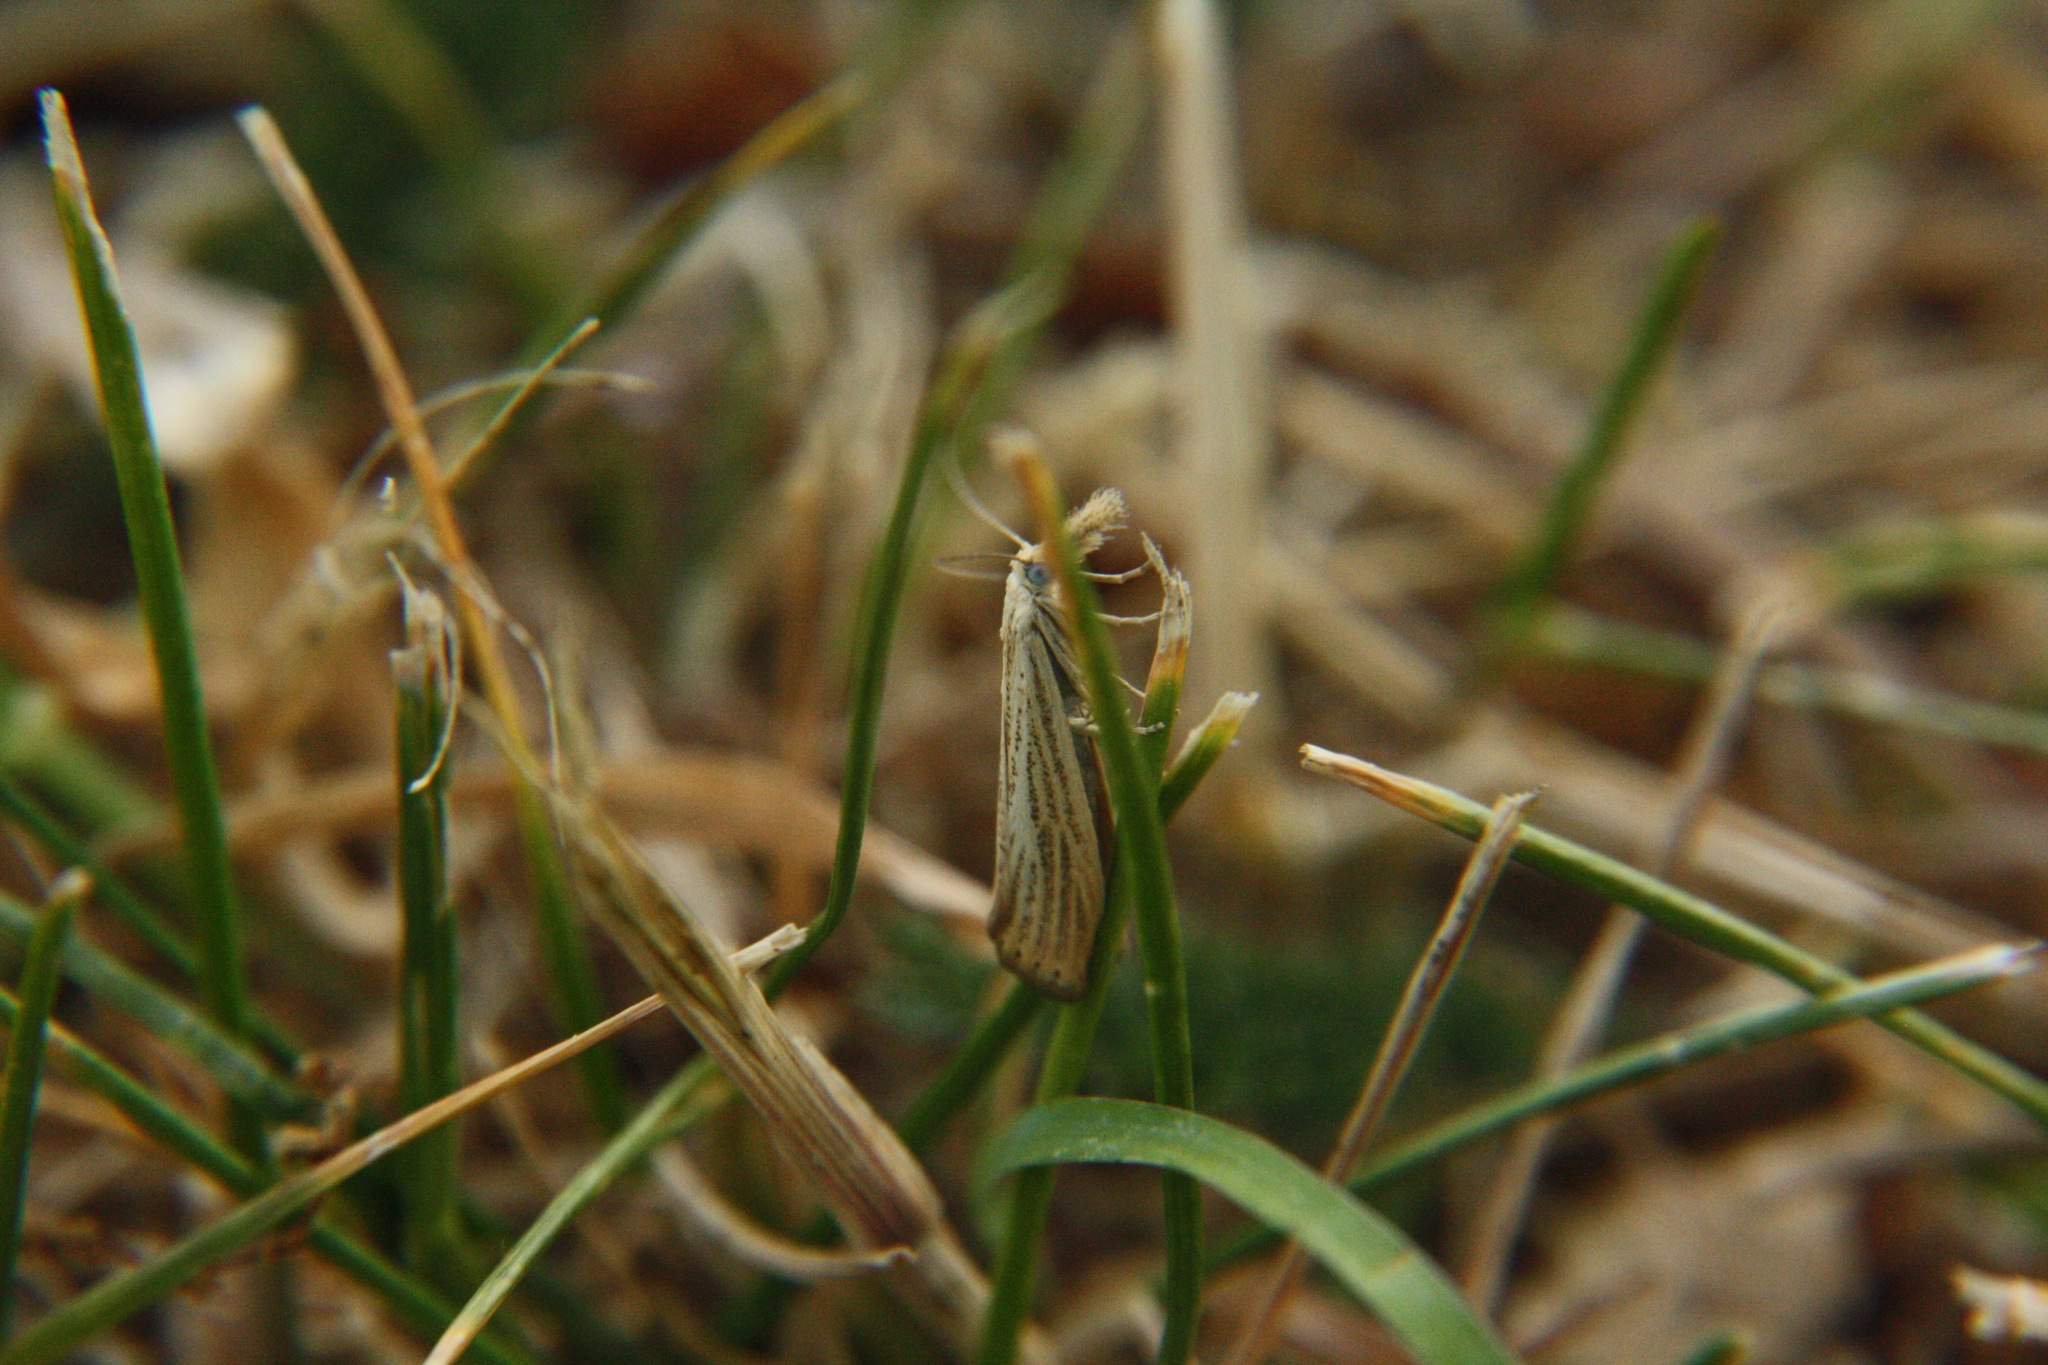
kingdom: Animalia
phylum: Arthropoda
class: Insecta
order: Lepidoptera
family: Crambidae
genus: Agriphila
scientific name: Agriphila straminella
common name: Straw grass-veneer
